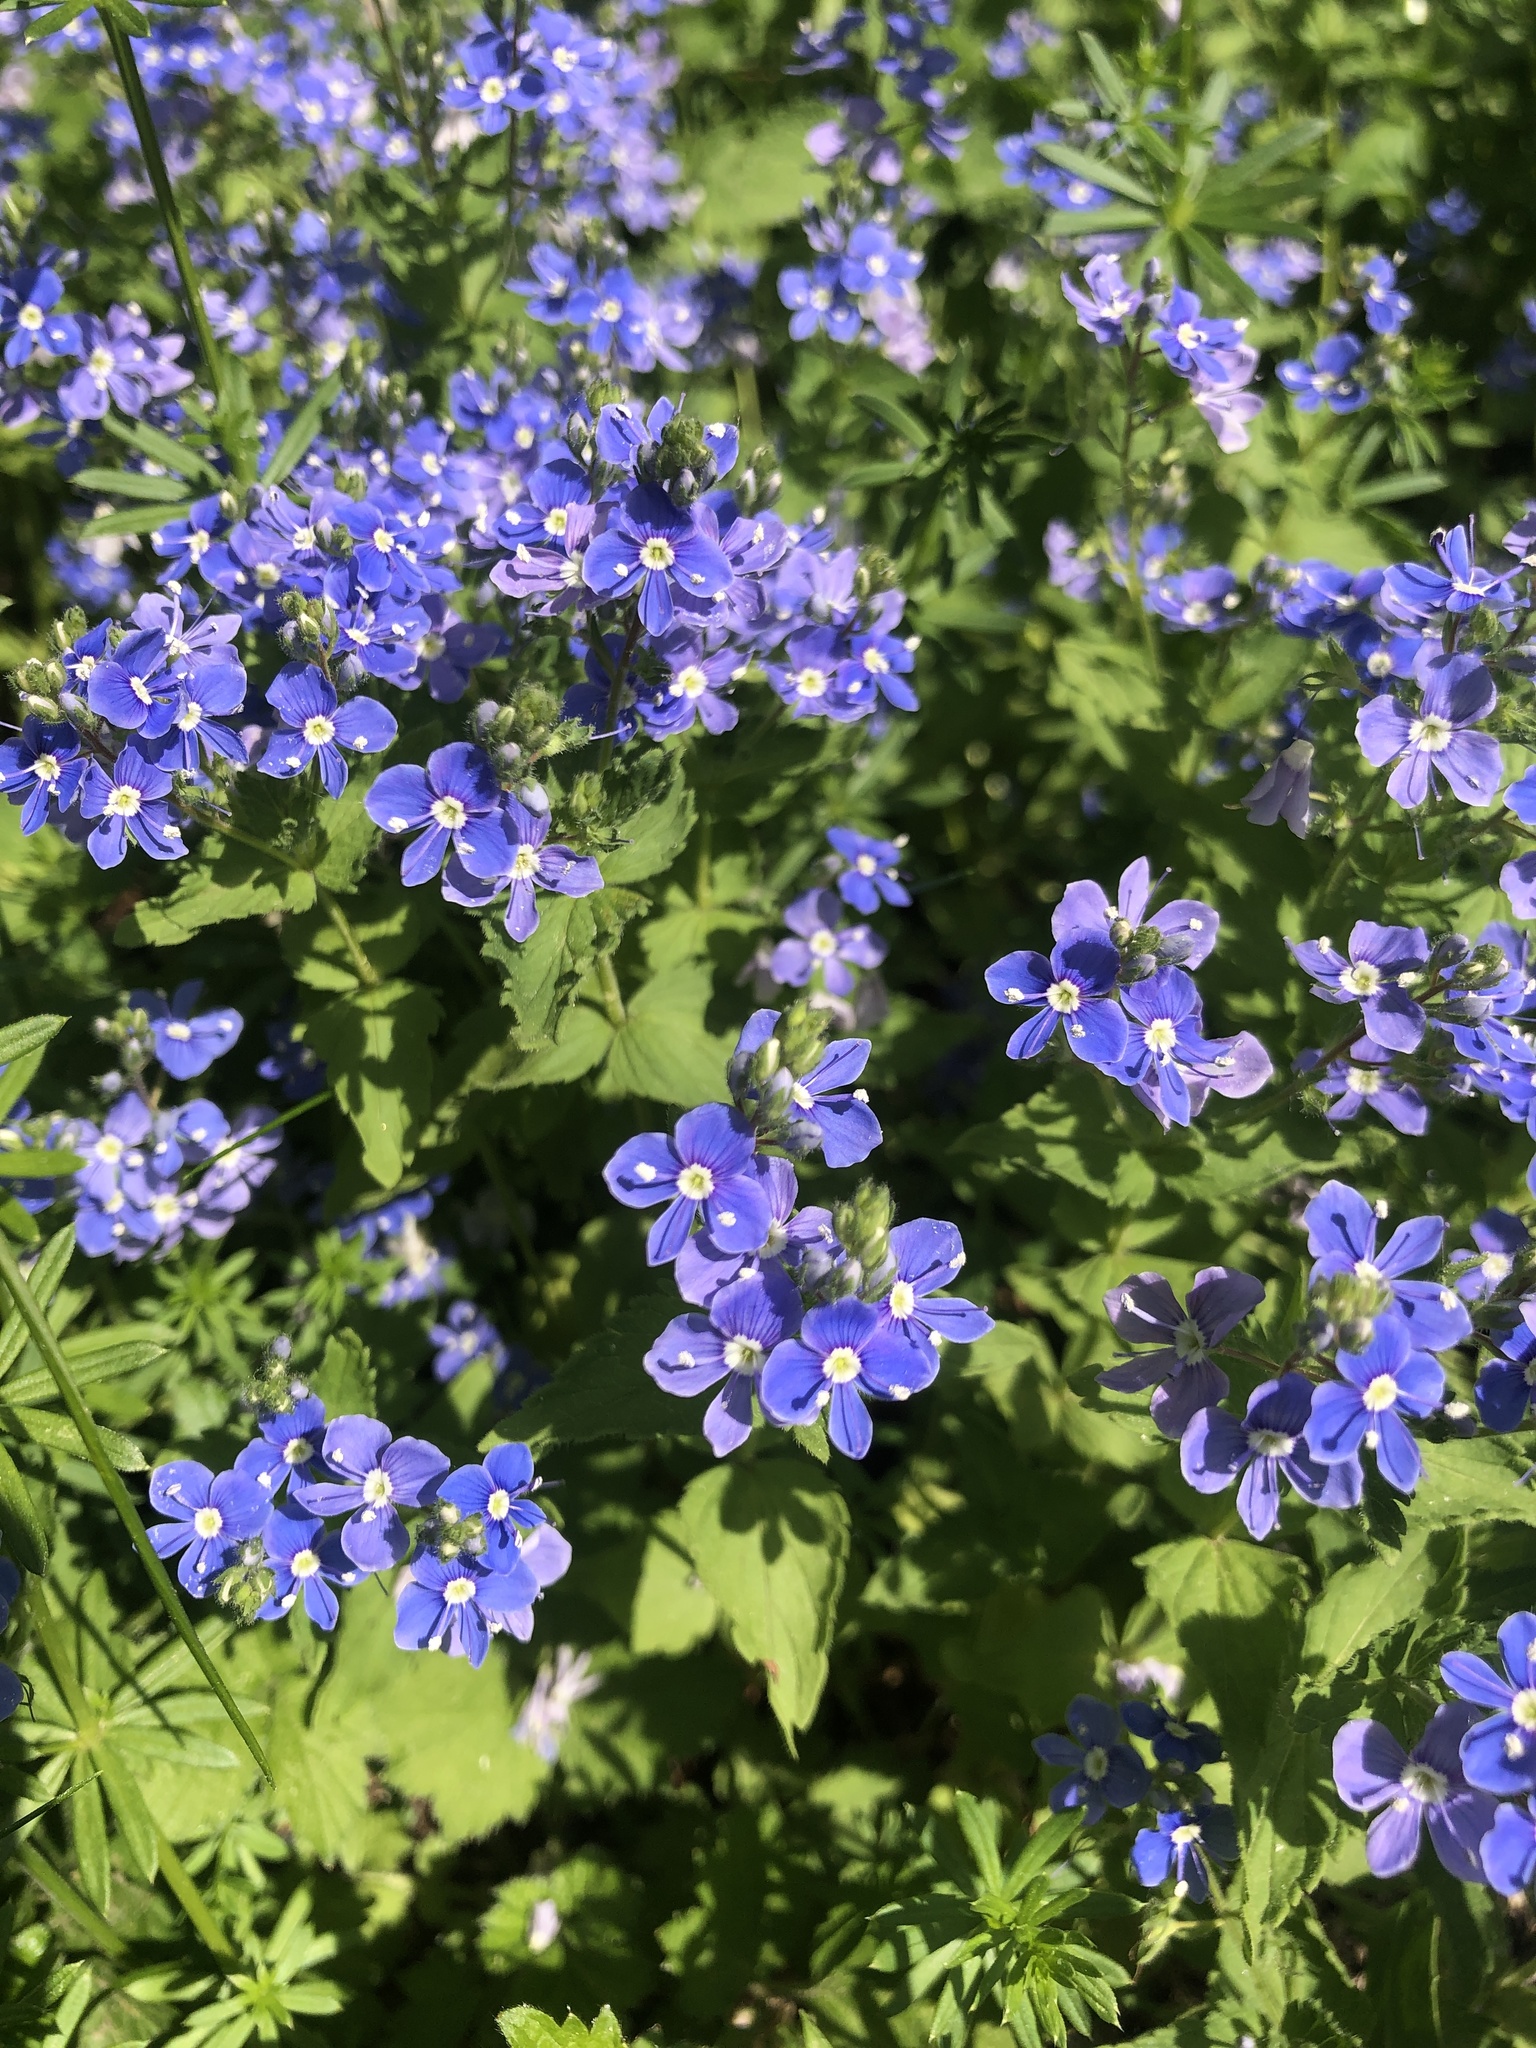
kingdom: Plantae
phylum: Tracheophyta
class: Magnoliopsida
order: Lamiales
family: Plantaginaceae
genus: Veronica
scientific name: Veronica chamaedrys
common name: Germander speedwell
